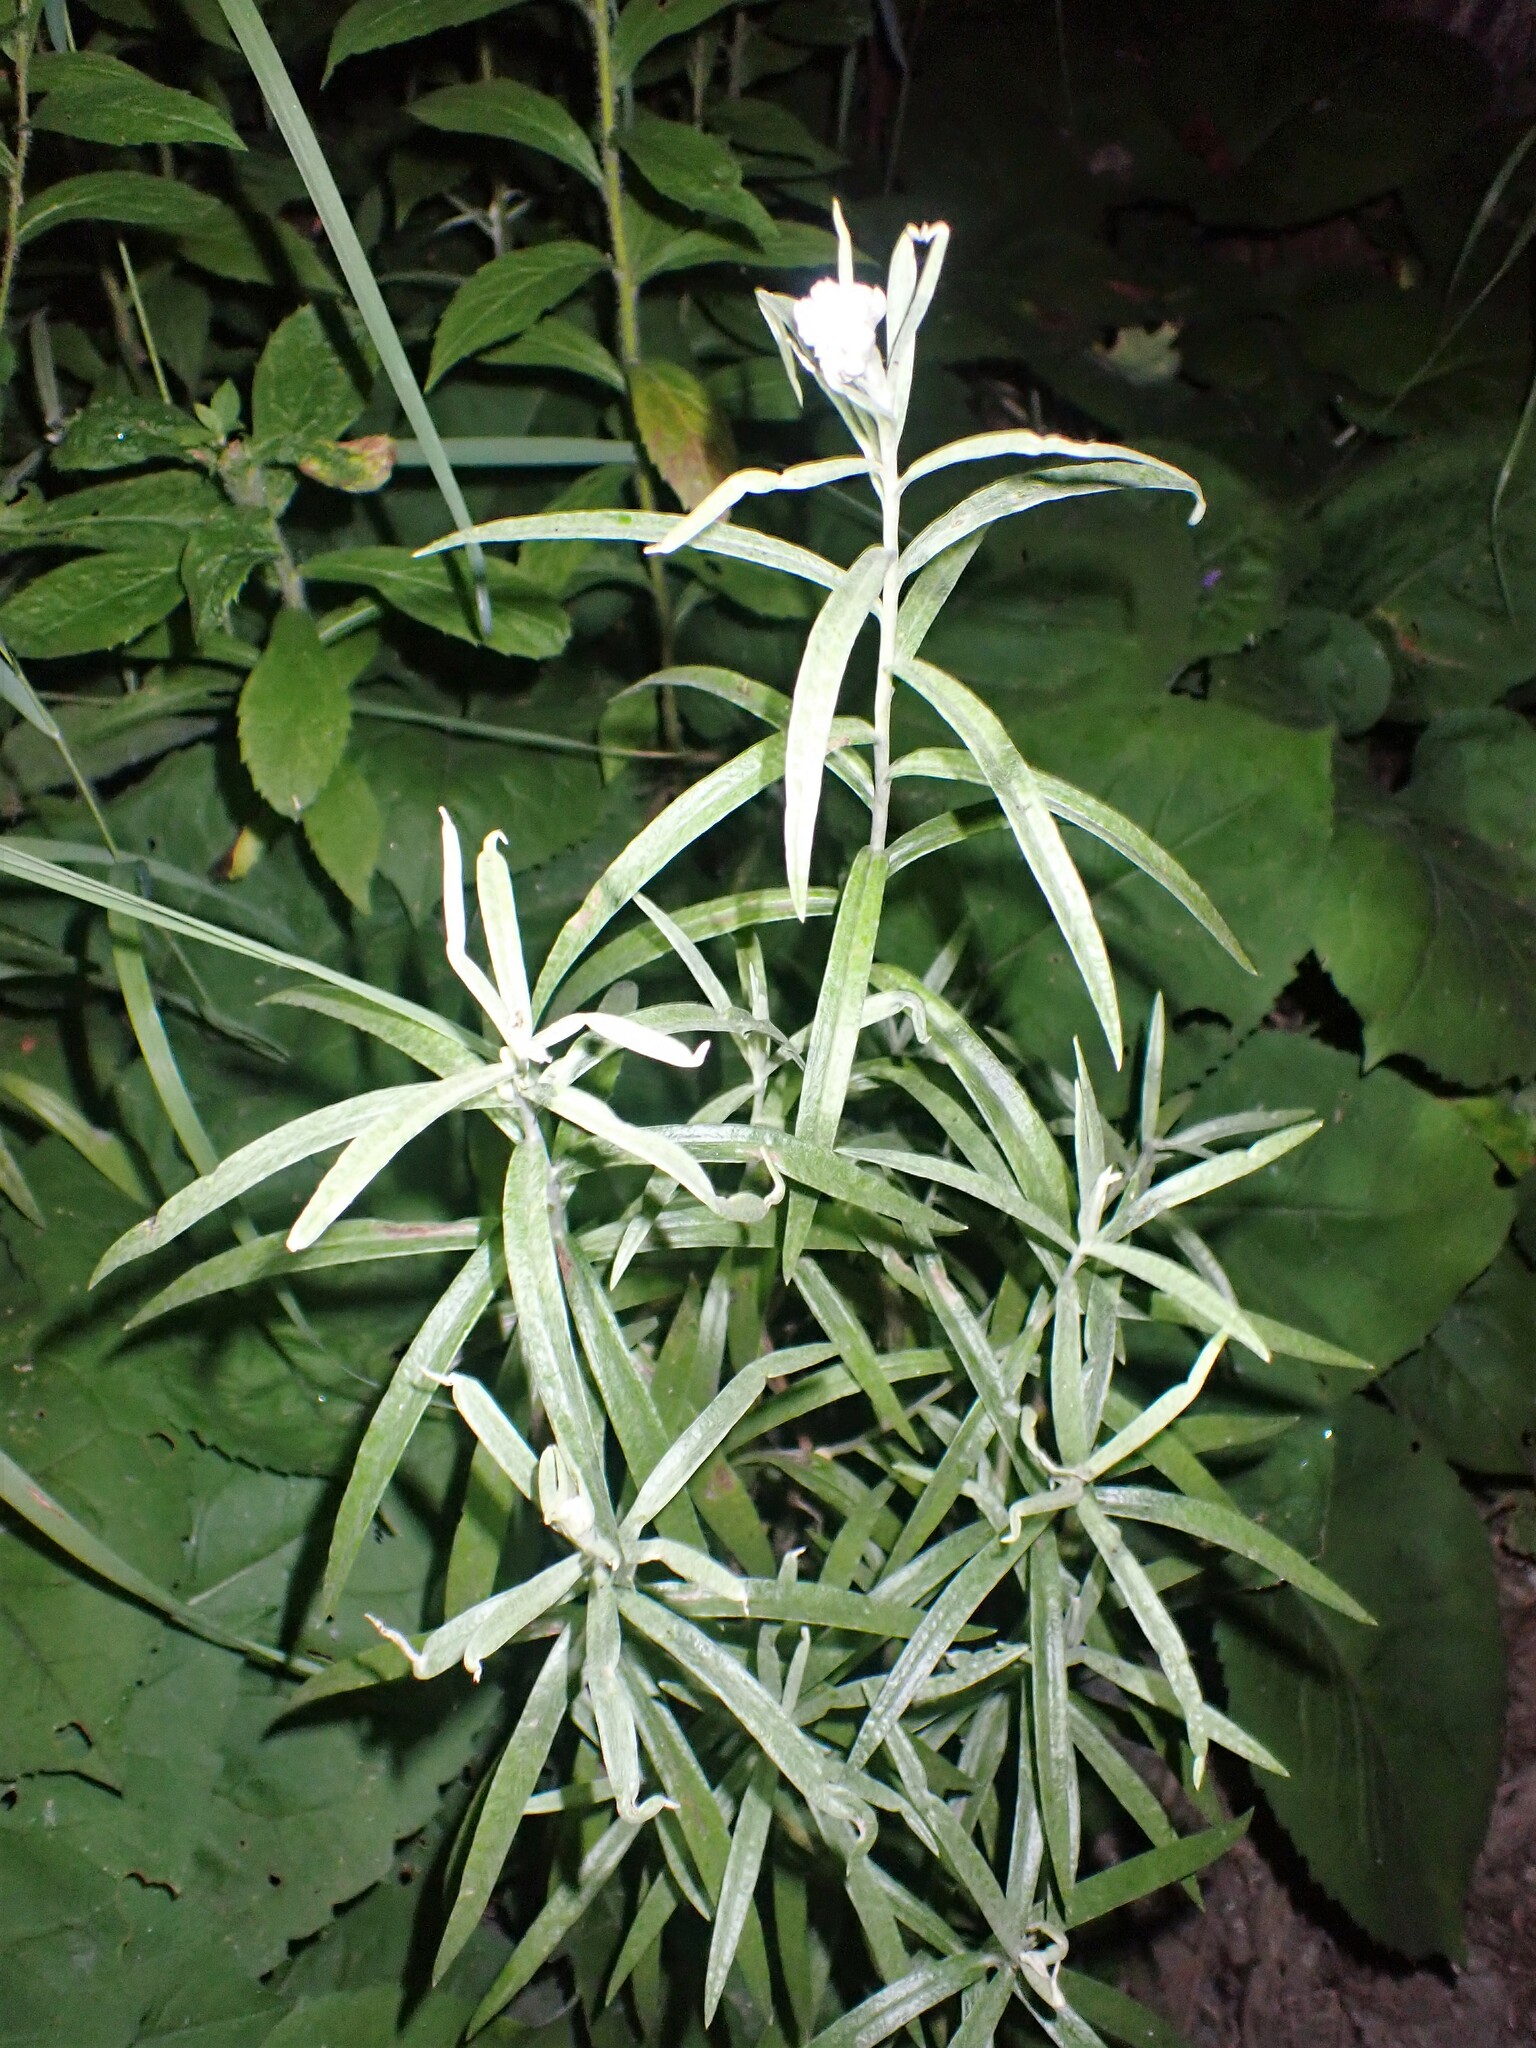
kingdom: Plantae
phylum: Tracheophyta
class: Magnoliopsida
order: Asterales
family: Asteraceae
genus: Anaphalis
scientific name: Anaphalis margaritacea
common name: Pearly everlasting
